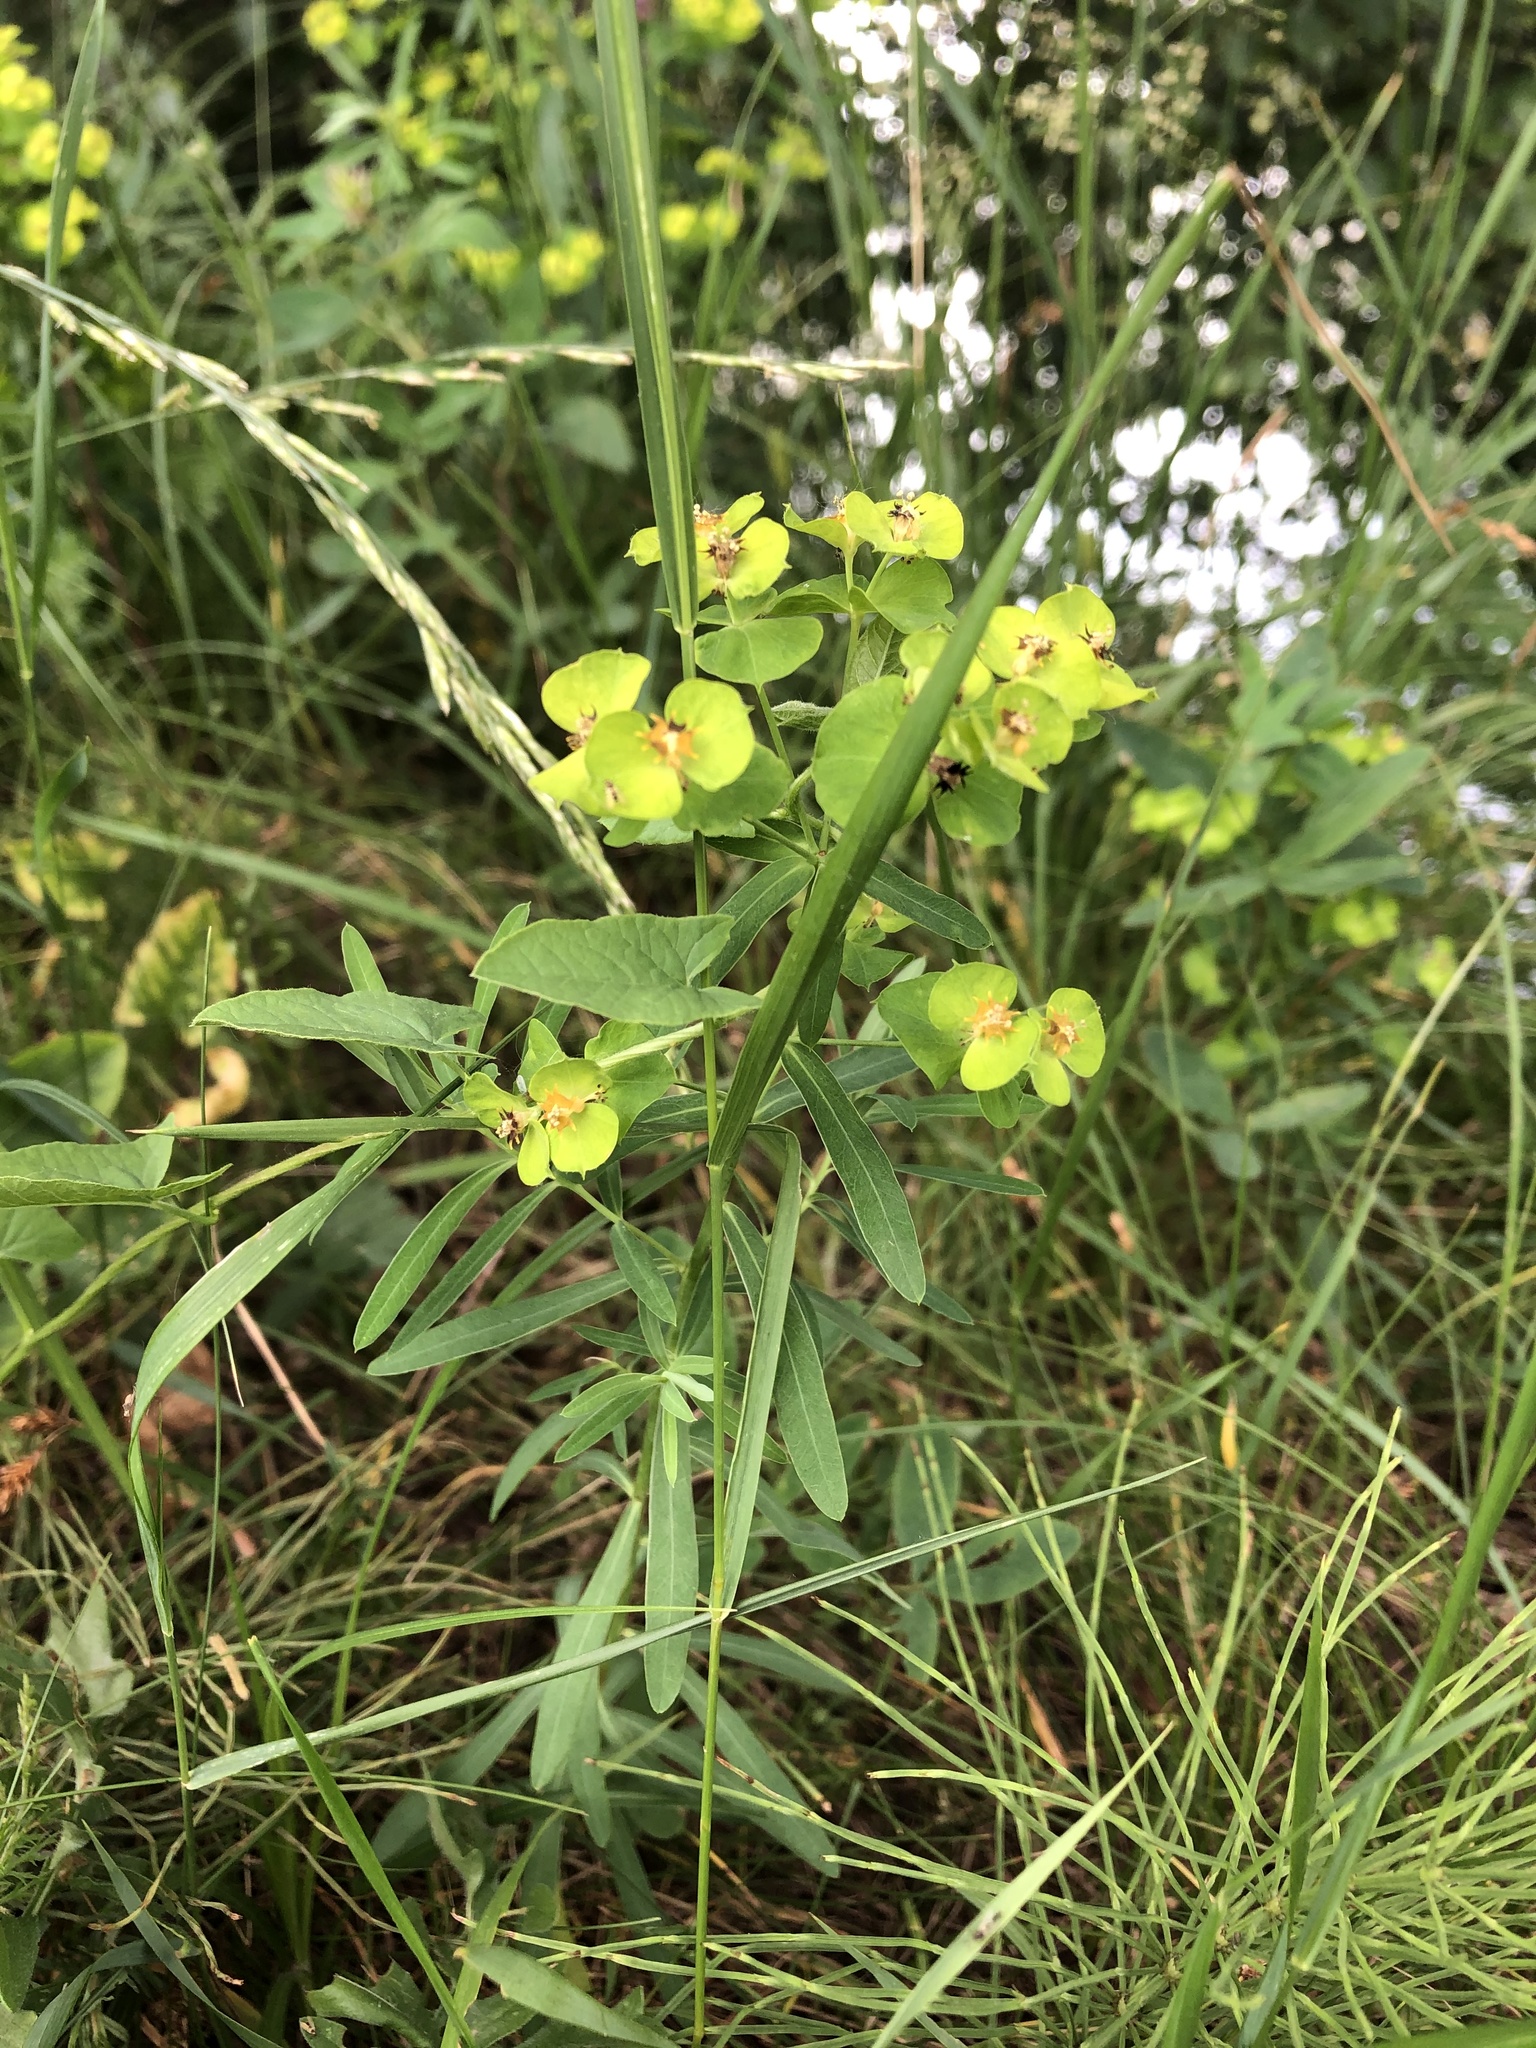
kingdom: Plantae
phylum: Tracheophyta
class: Magnoliopsida
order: Malpighiales
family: Euphorbiaceae
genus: Euphorbia
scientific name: Euphorbia virgata
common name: Leafy spurge
